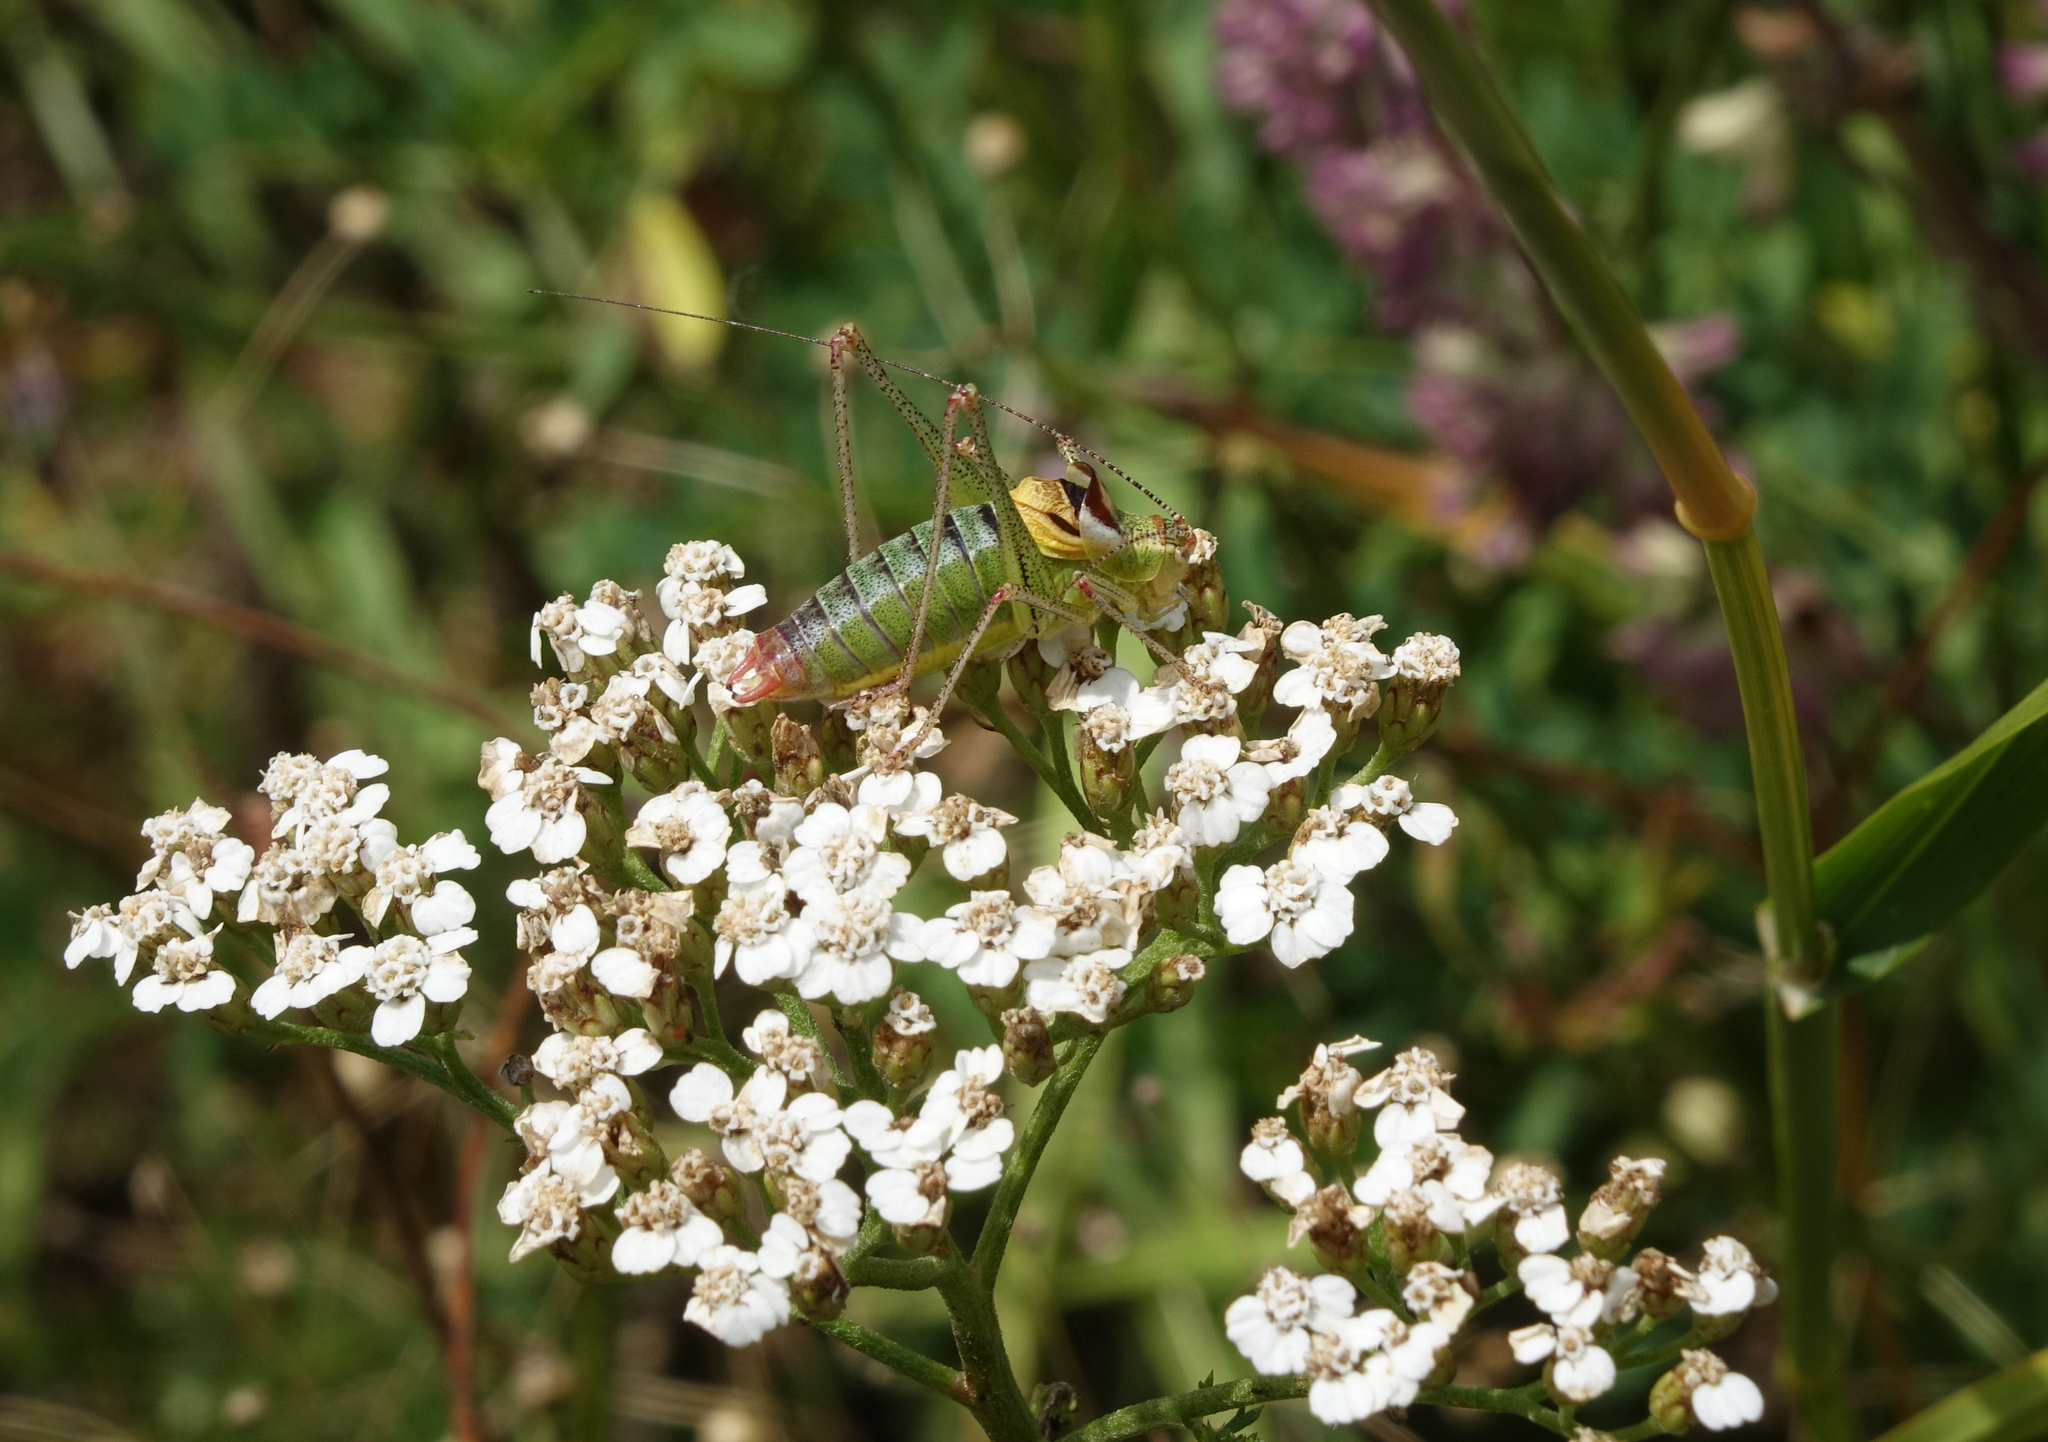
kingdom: Animalia
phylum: Arthropoda
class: Insecta
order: Orthoptera
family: Tettigoniidae
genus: Poecilimon
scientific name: Poecilimon geoktschajcus
